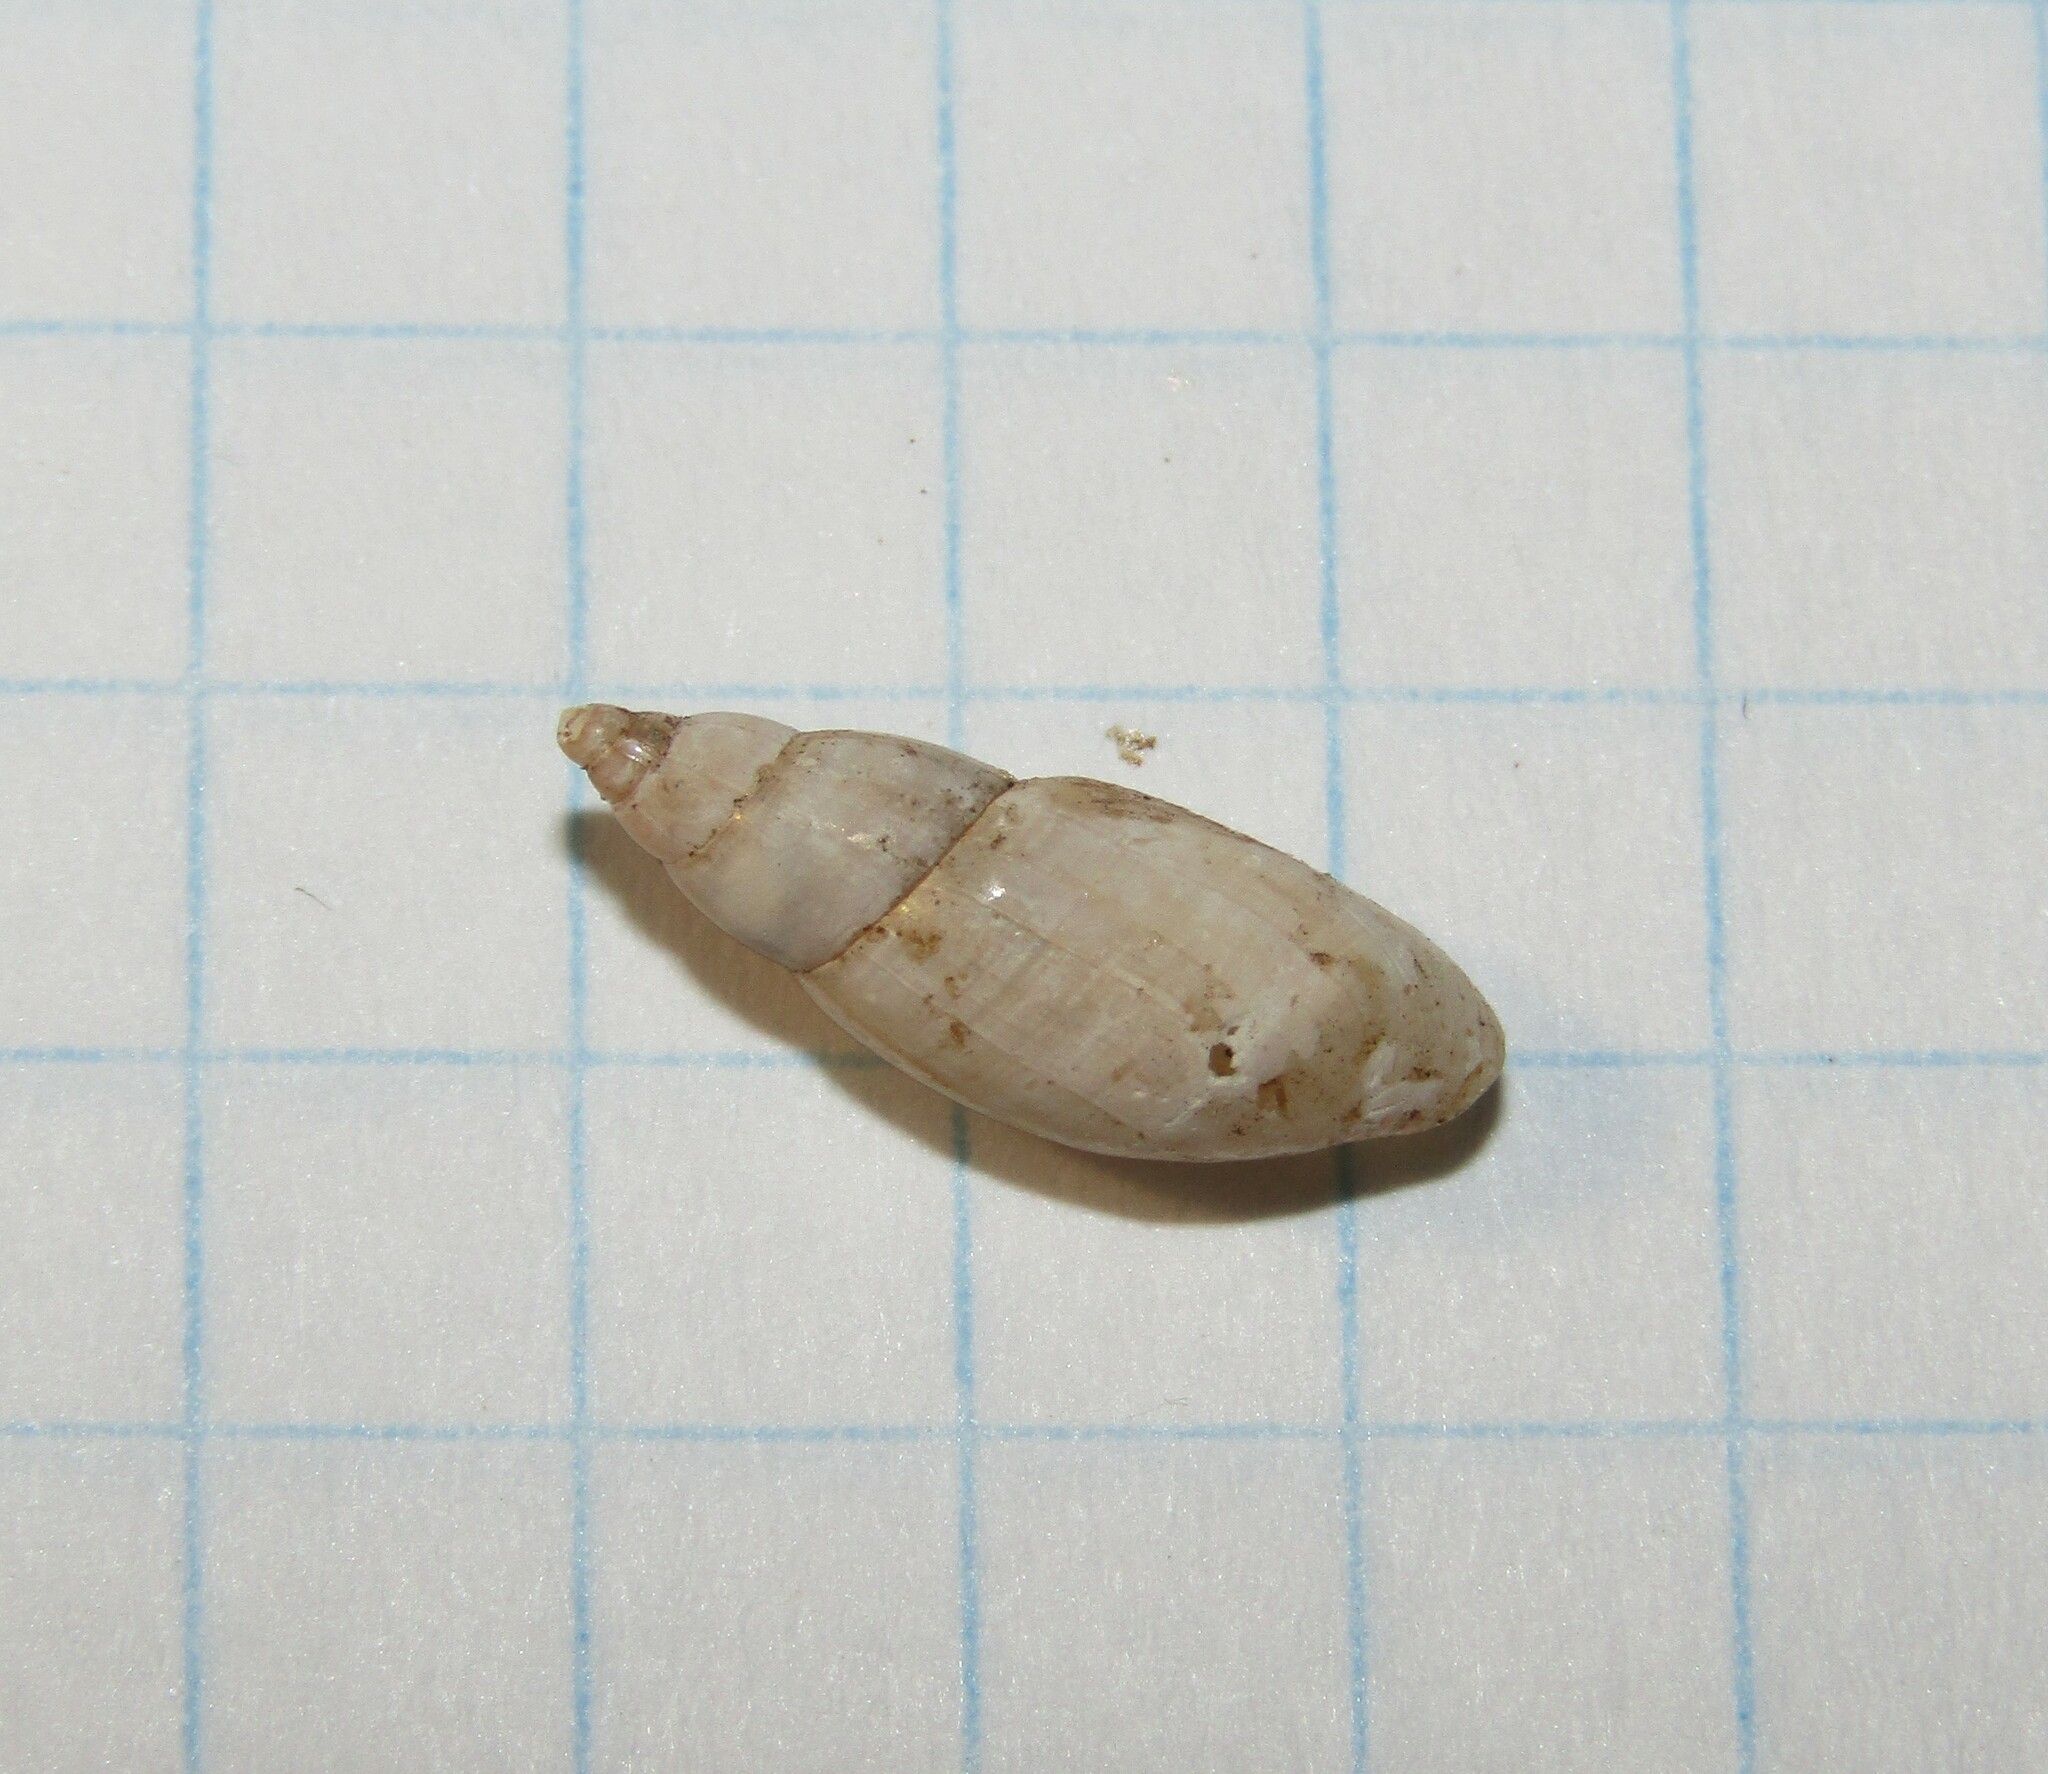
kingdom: Animalia
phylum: Mollusca
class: Gastropoda
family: Physidae
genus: Aplexa
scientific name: Aplexa hypnorum
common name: Moss bladder snail
